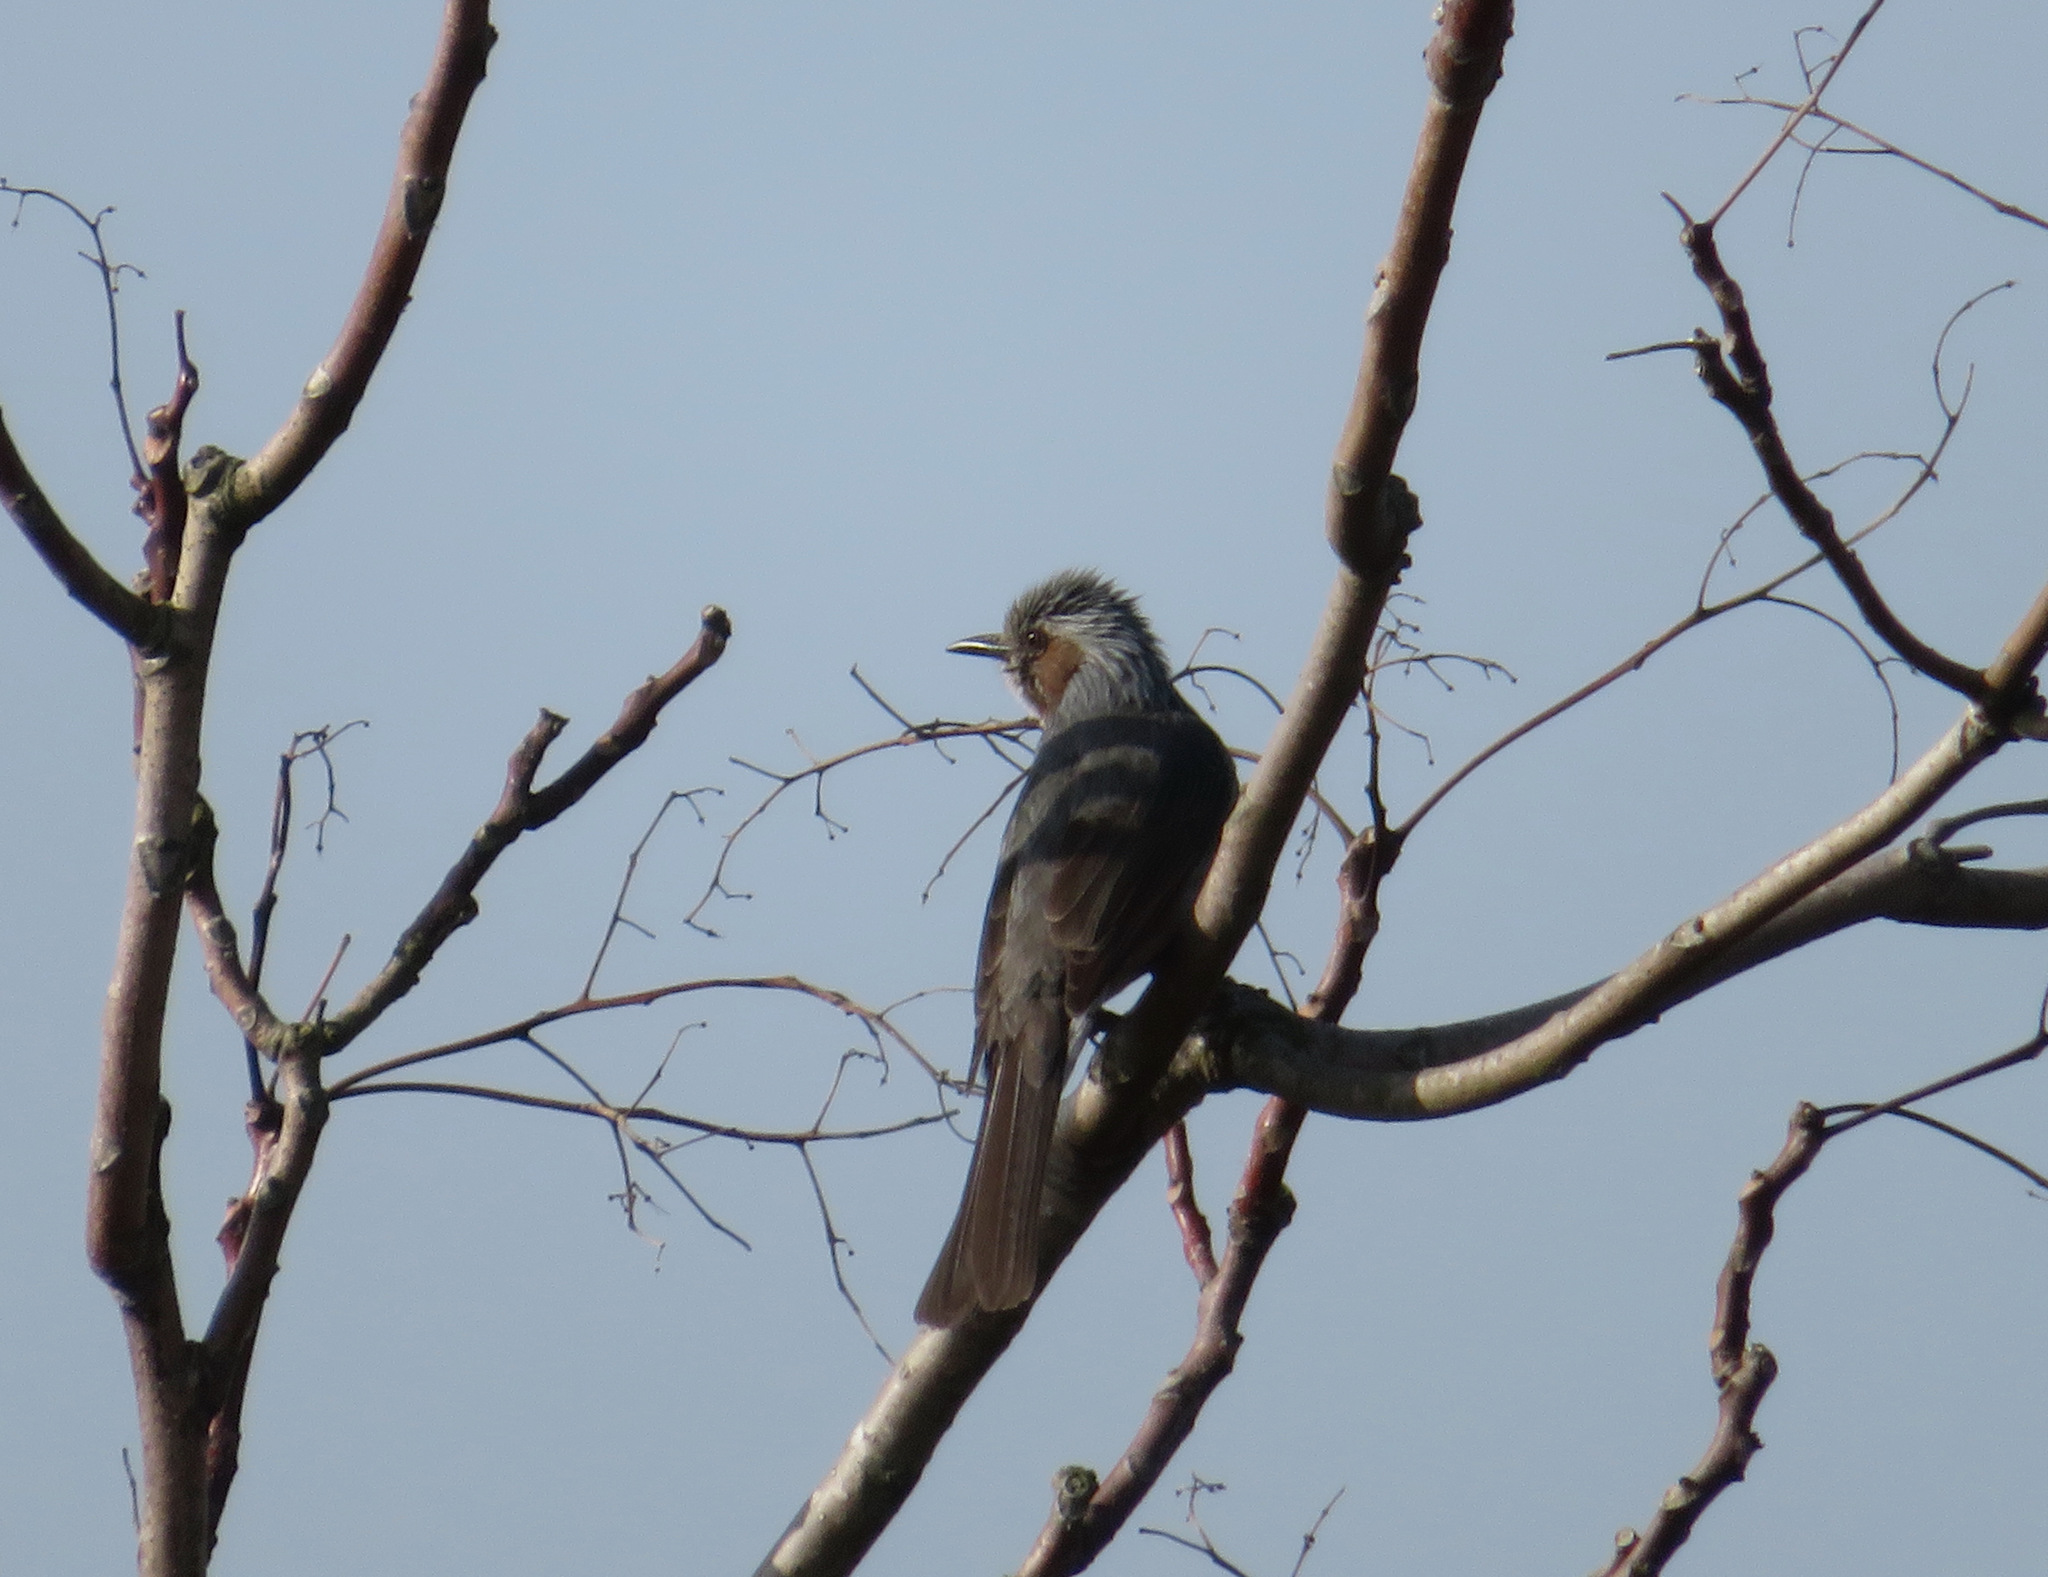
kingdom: Animalia
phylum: Chordata
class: Aves
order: Passeriformes
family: Pycnonotidae
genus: Hypsipetes
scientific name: Hypsipetes amaurotis
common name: Brown-eared bulbul
